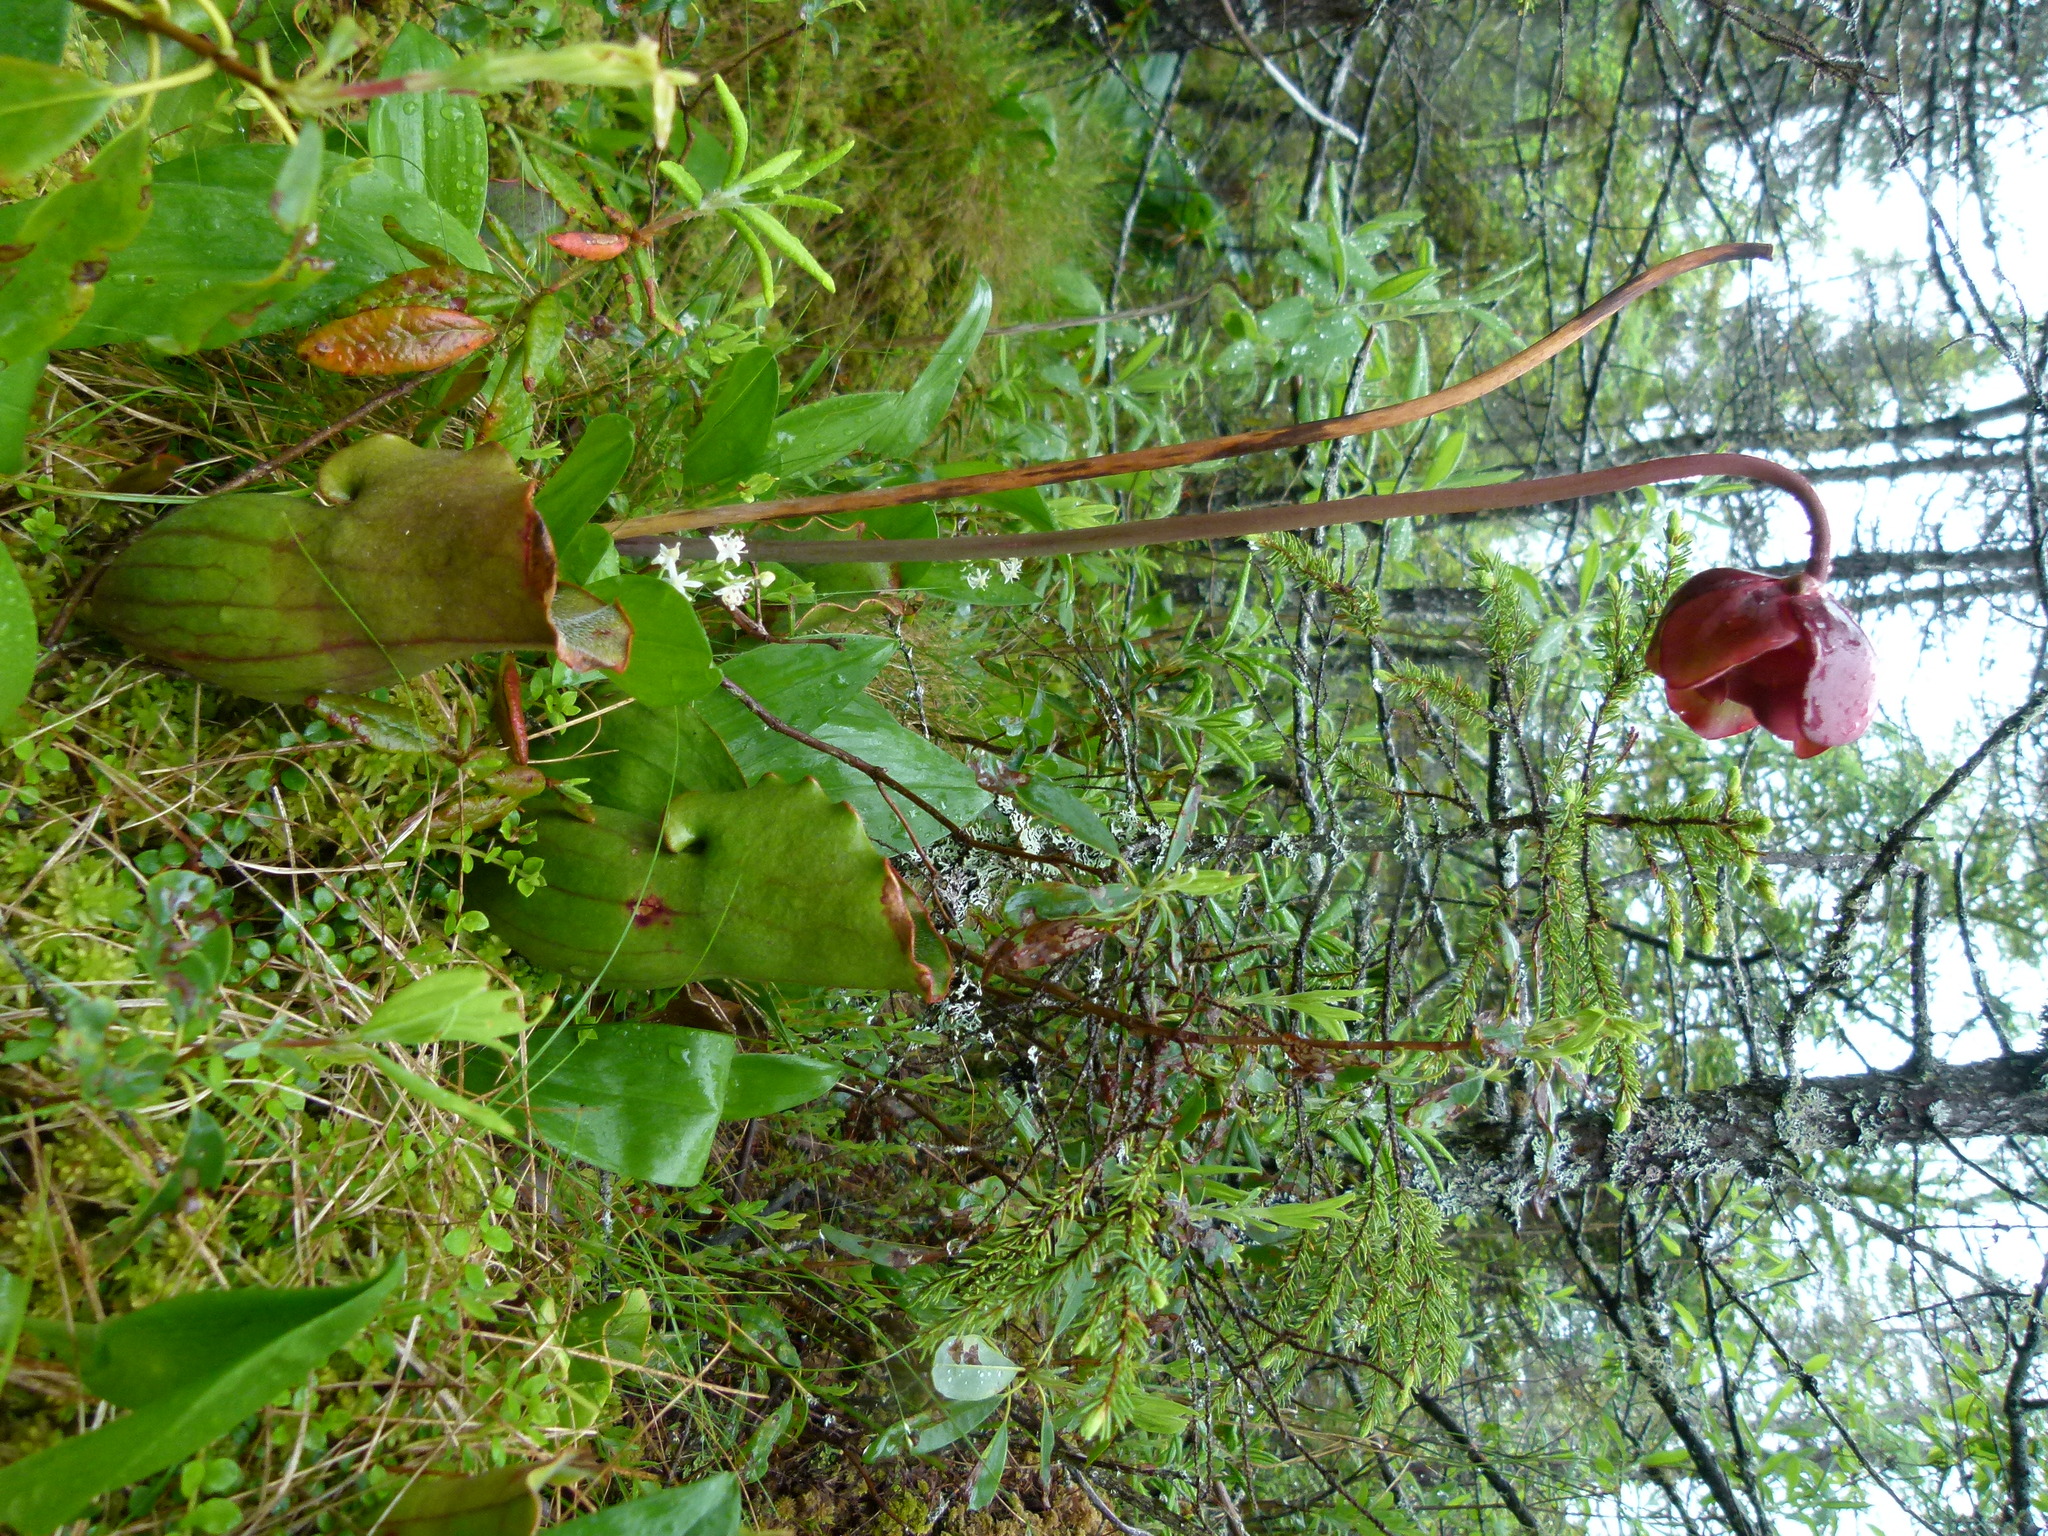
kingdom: Plantae
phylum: Tracheophyta
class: Magnoliopsida
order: Ericales
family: Sarraceniaceae
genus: Sarracenia
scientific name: Sarracenia purpurea
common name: Pitcherplant
